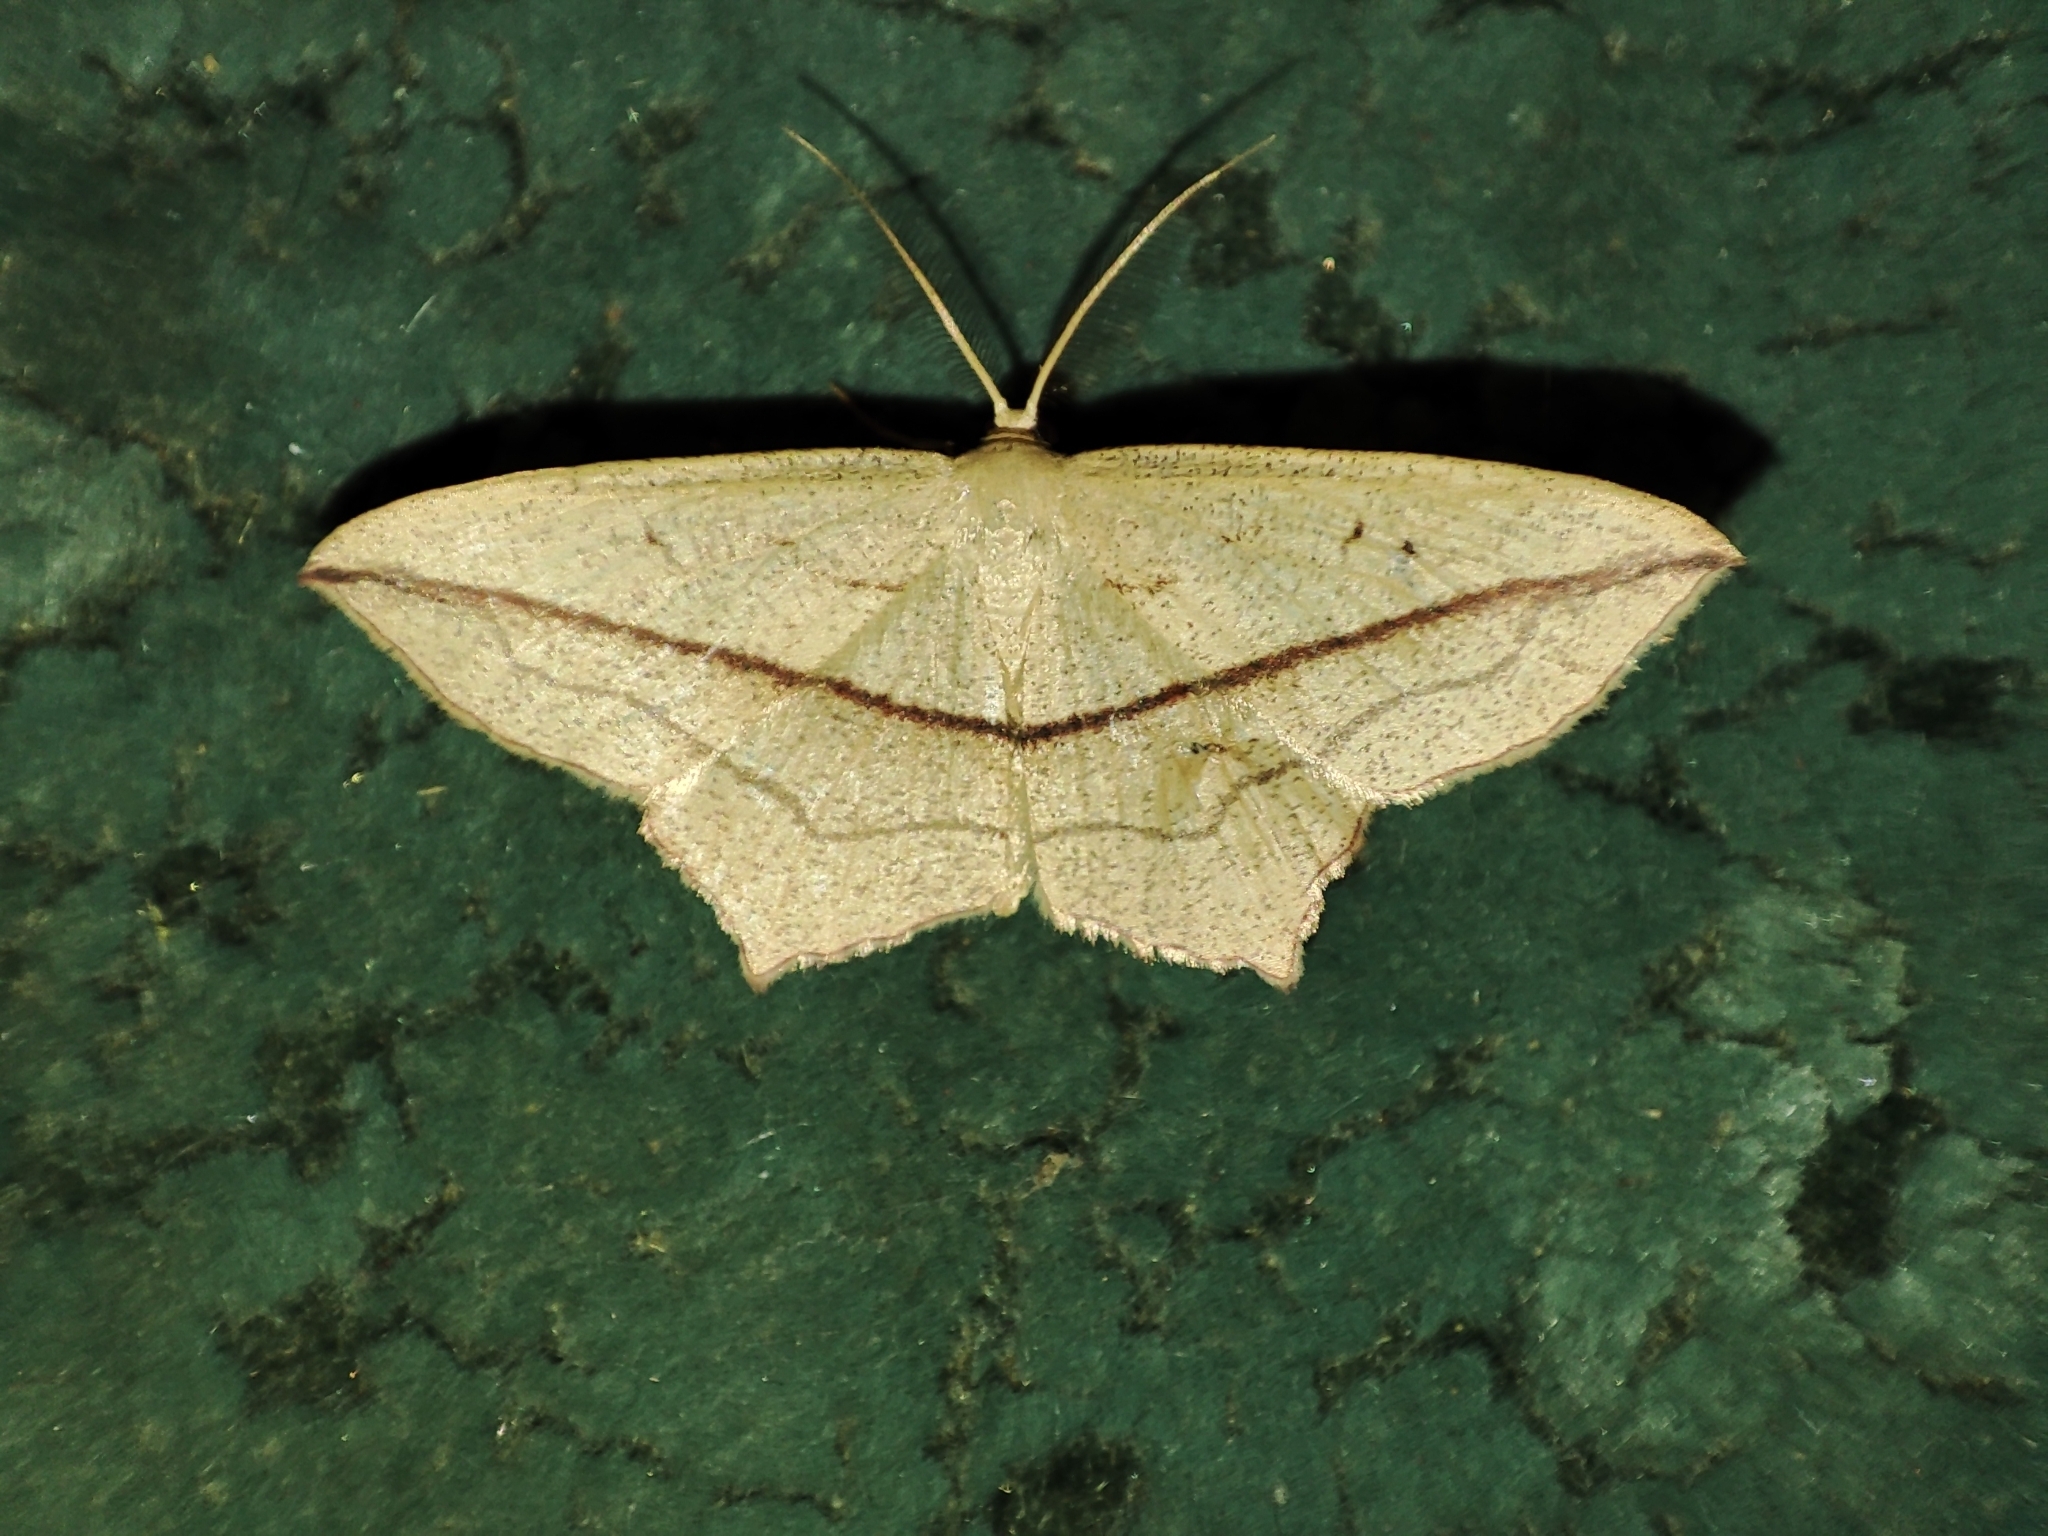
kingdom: Animalia
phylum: Arthropoda
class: Insecta
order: Lepidoptera
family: Geometridae
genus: Timandra
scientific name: Timandra comae
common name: Blood-vein
